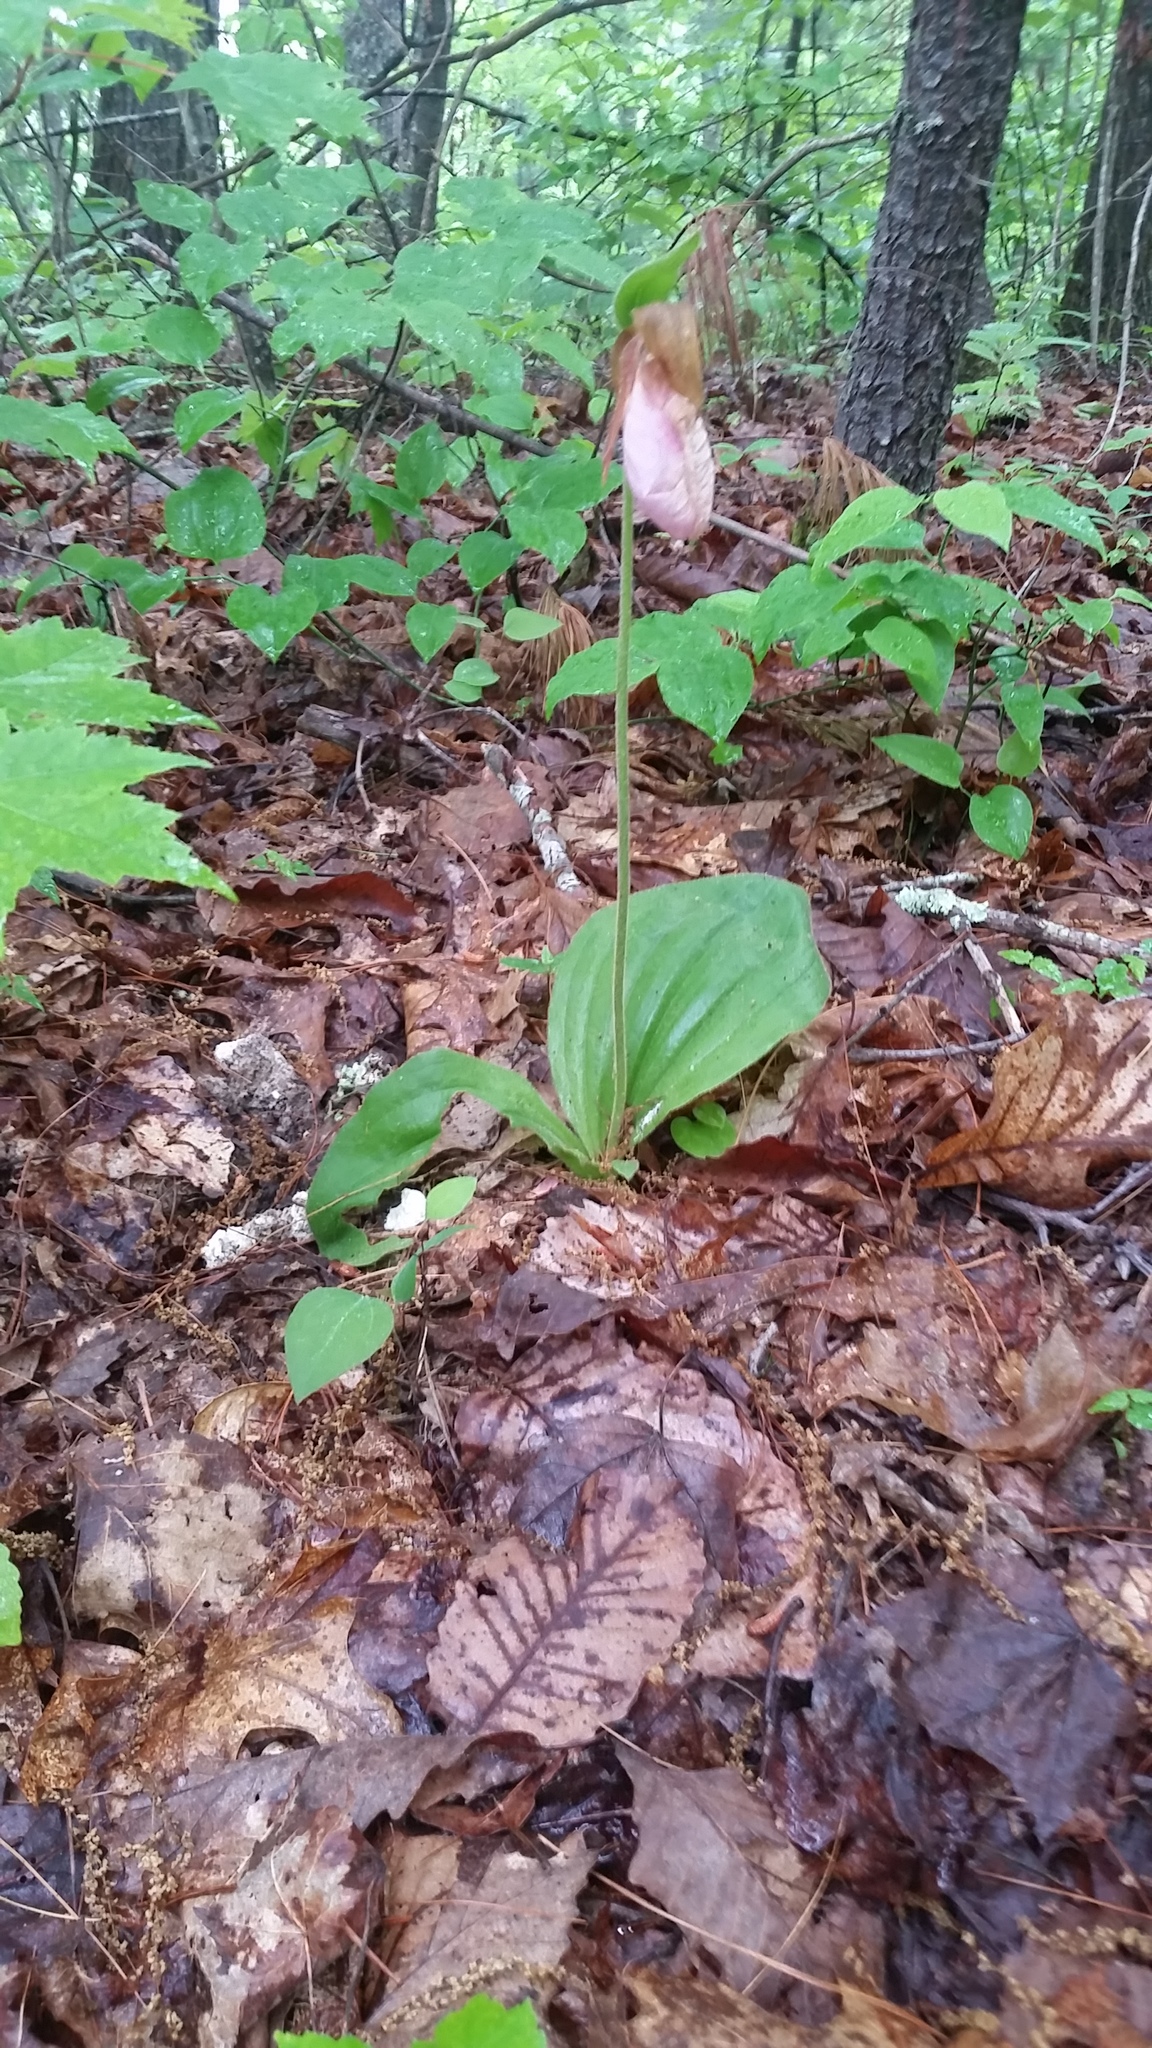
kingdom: Plantae
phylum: Tracheophyta
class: Liliopsida
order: Asparagales
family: Orchidaceae
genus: Cypripedium
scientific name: Cypripedium acaule
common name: Pink lady's-slipper
